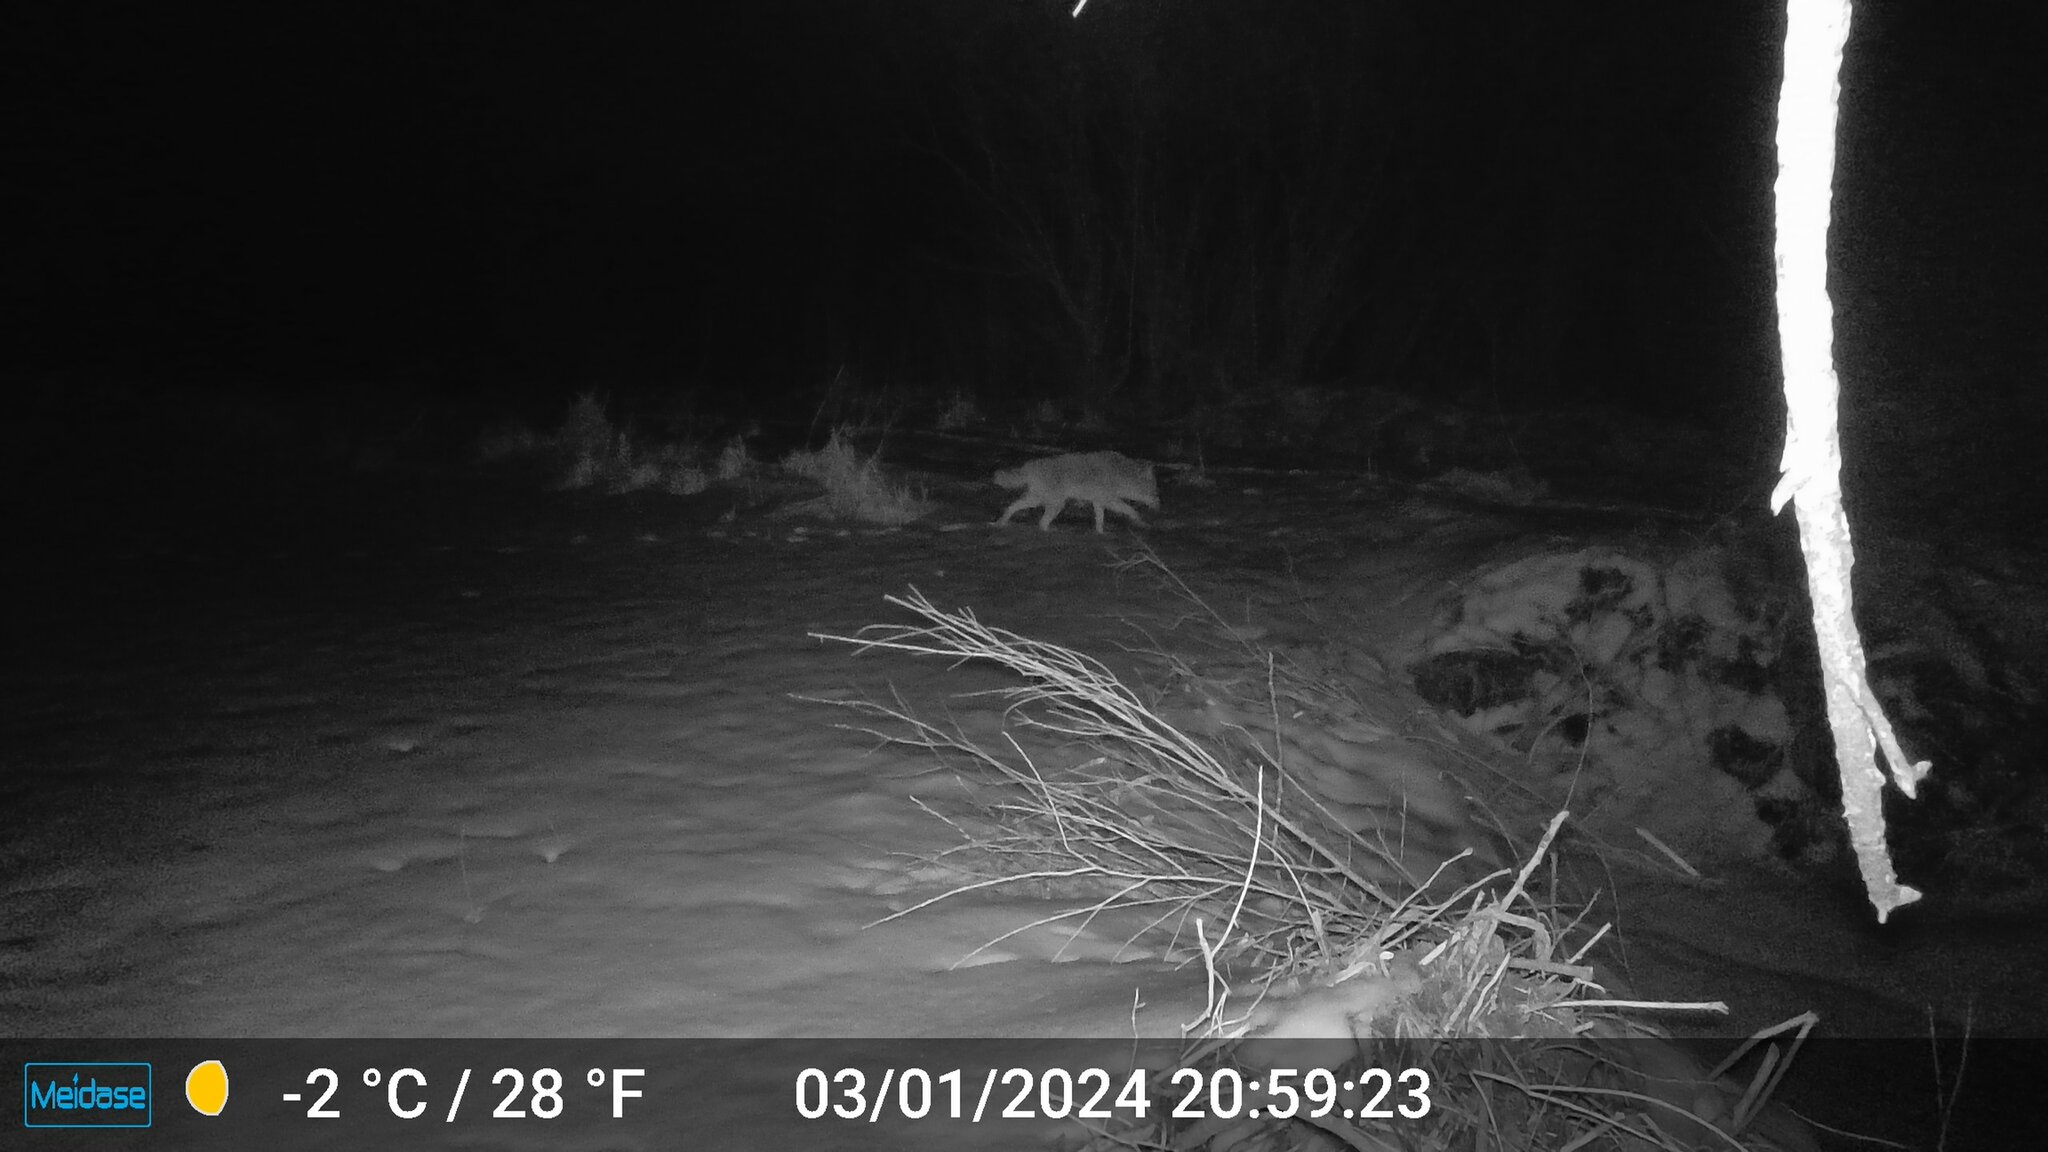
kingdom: Animalia
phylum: Chordata
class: Mammalia
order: Carnivora
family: Canidae
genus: Canis
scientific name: Canis latrans
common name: Coyote
